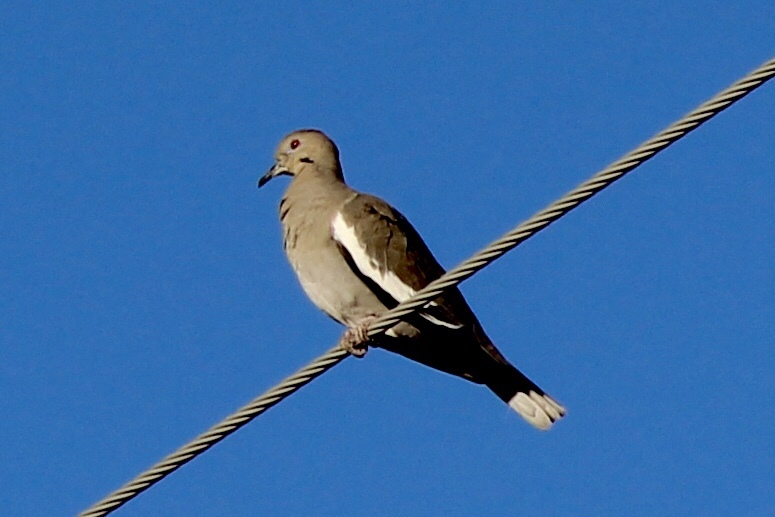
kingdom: Animalia
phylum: Chordata
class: Aves
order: Columbiformes
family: Columbidae
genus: Zenaida
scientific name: Zenaida asiatica
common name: White-winged dove
